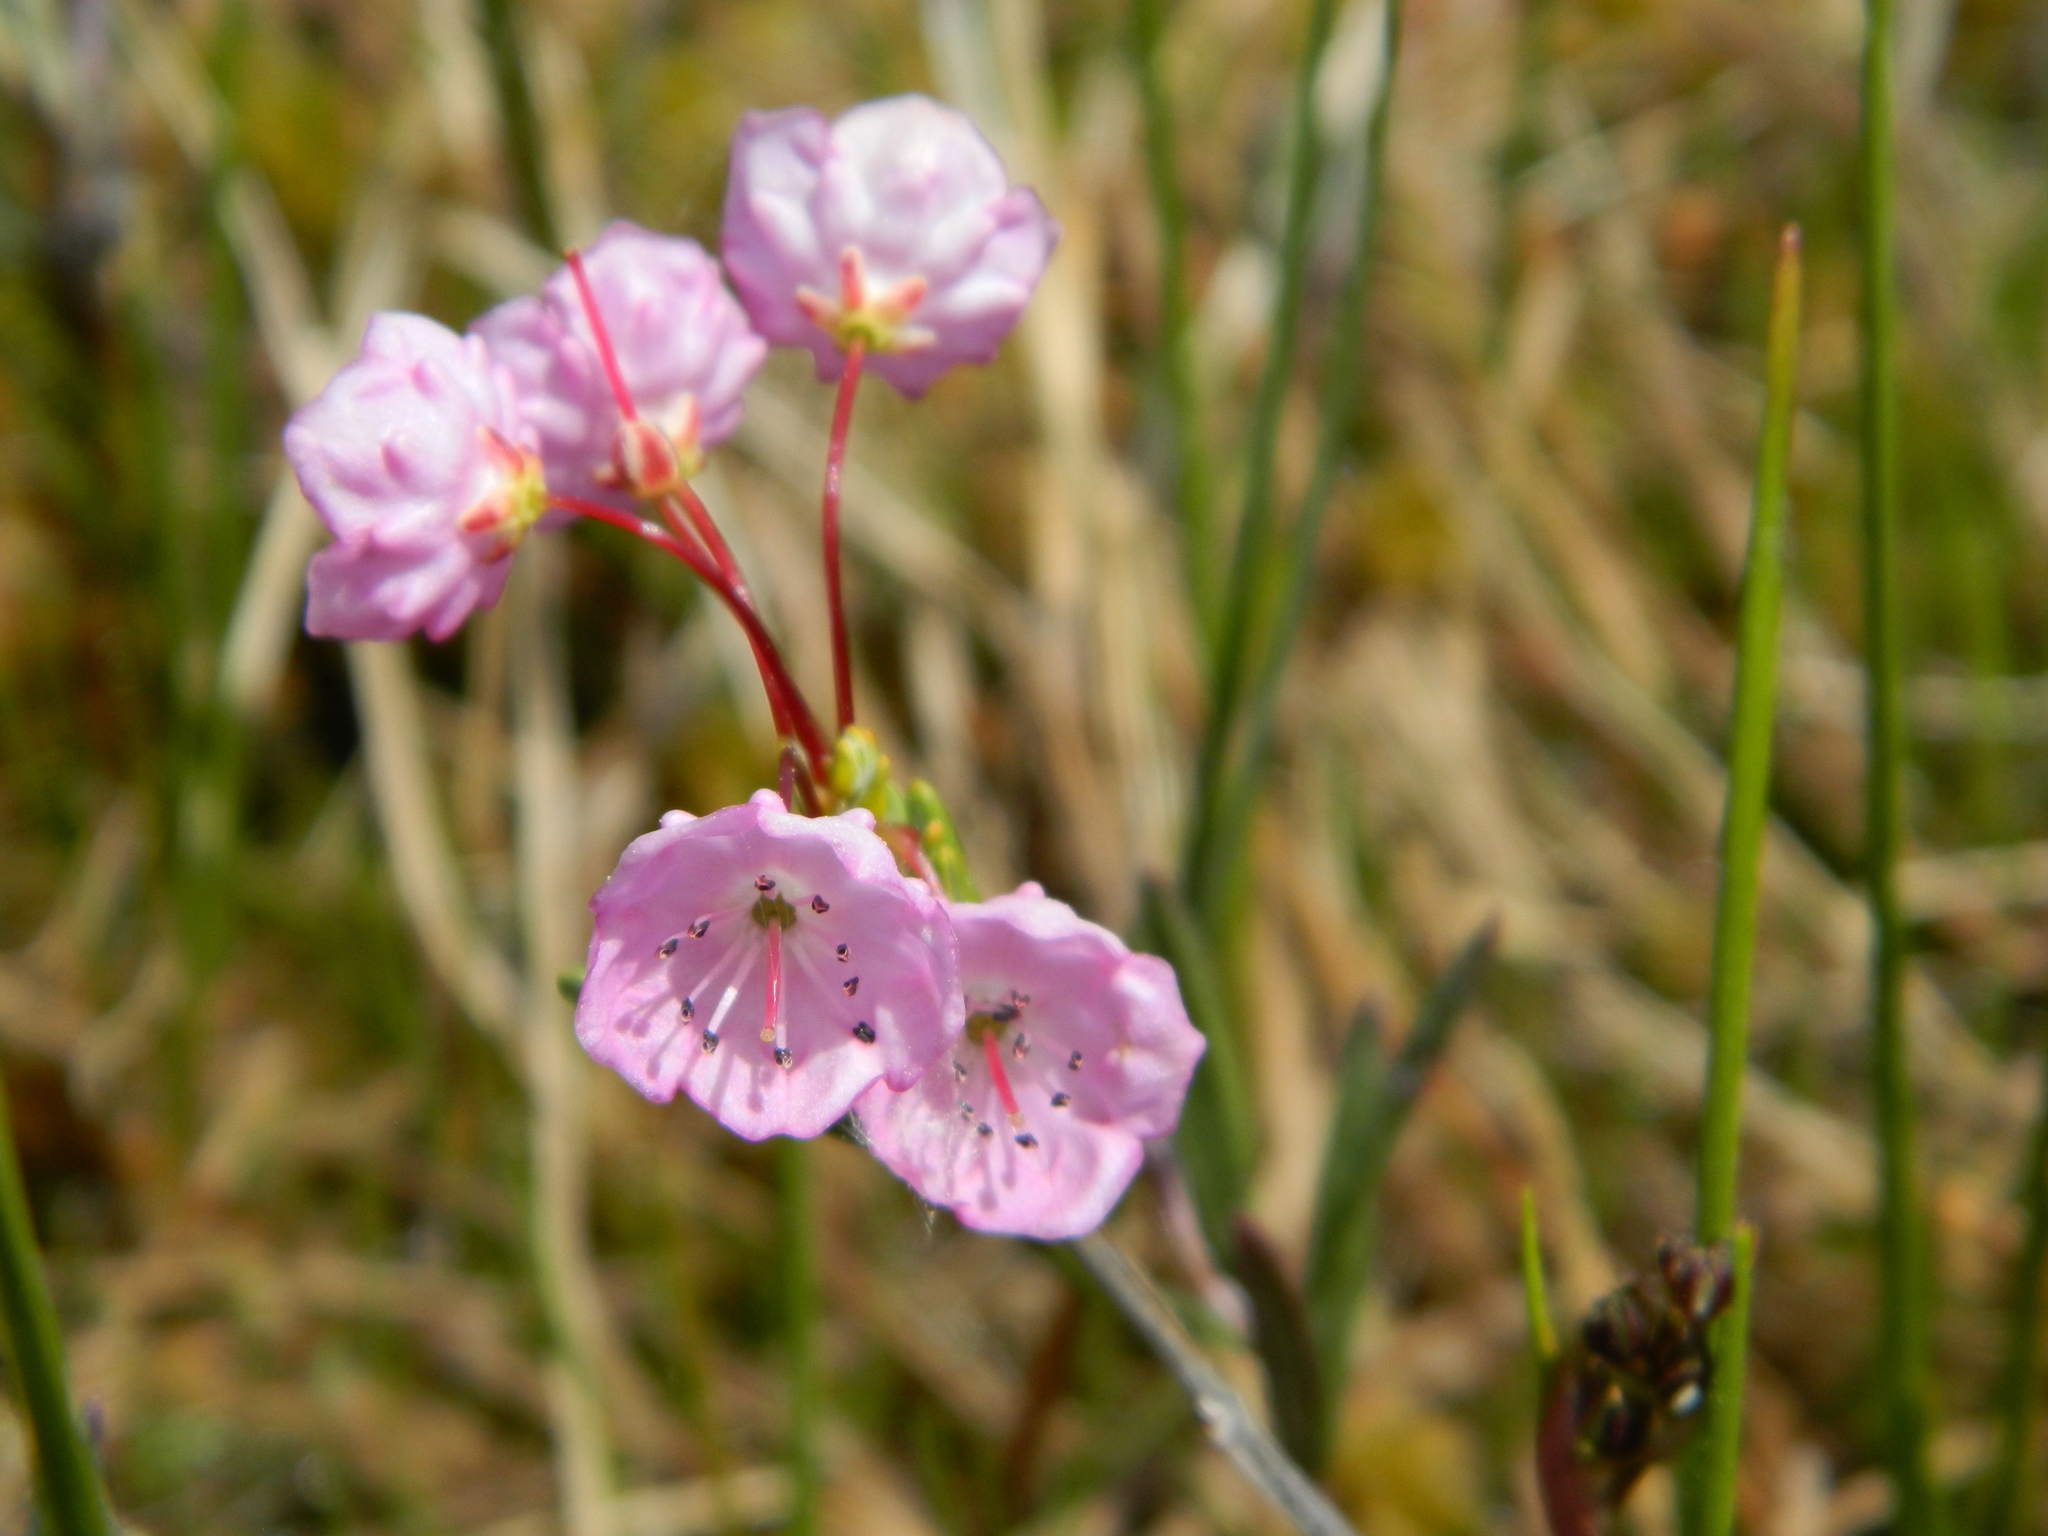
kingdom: Plantae
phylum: Tracheophyta
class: Magnoliopsida
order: Ericales
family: Ericaceae
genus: Kalmia
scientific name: Kalmia polifolia
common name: Bog-laurel
